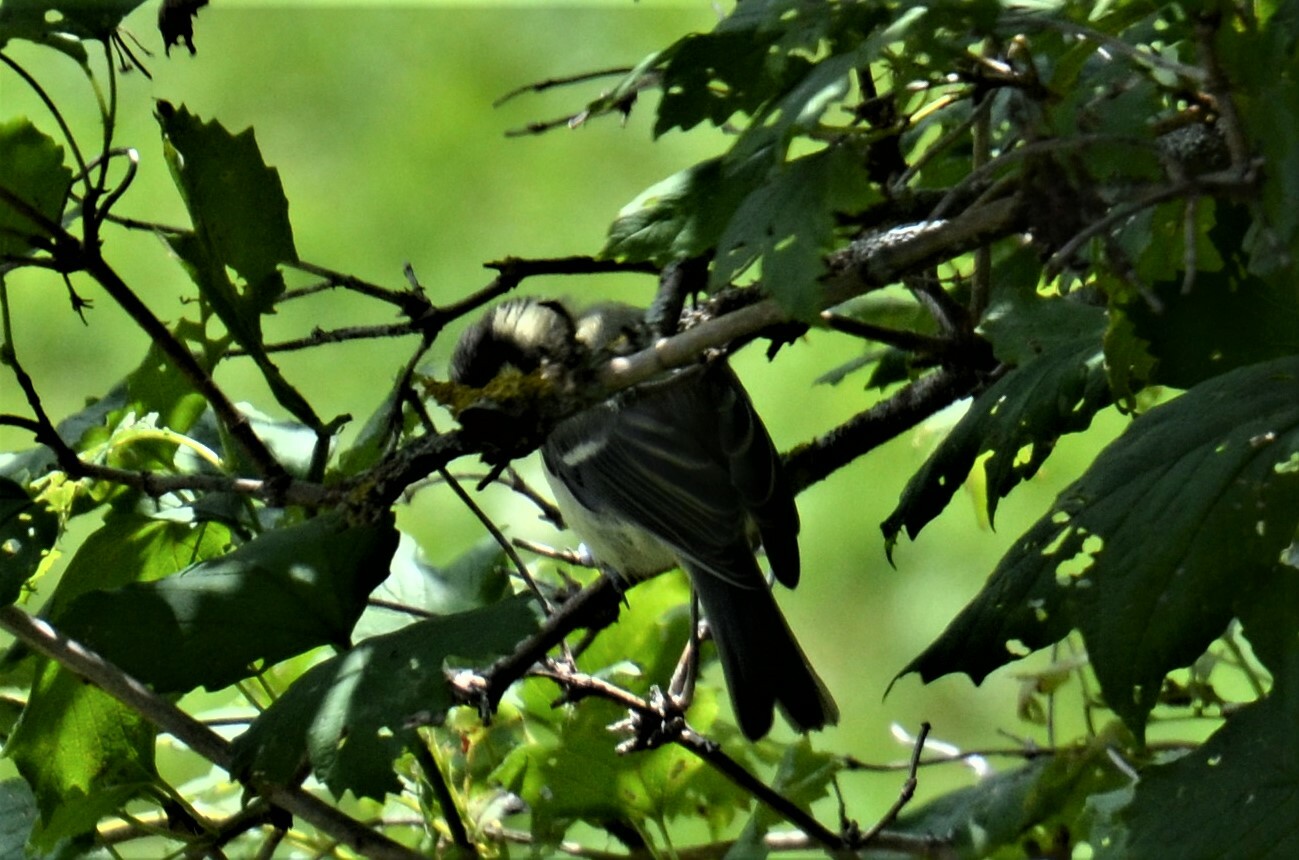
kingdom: Animalia
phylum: Chordata
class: Aves
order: Passeriformes
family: Paridae
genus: Parus
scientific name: Parus major
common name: Great tit
